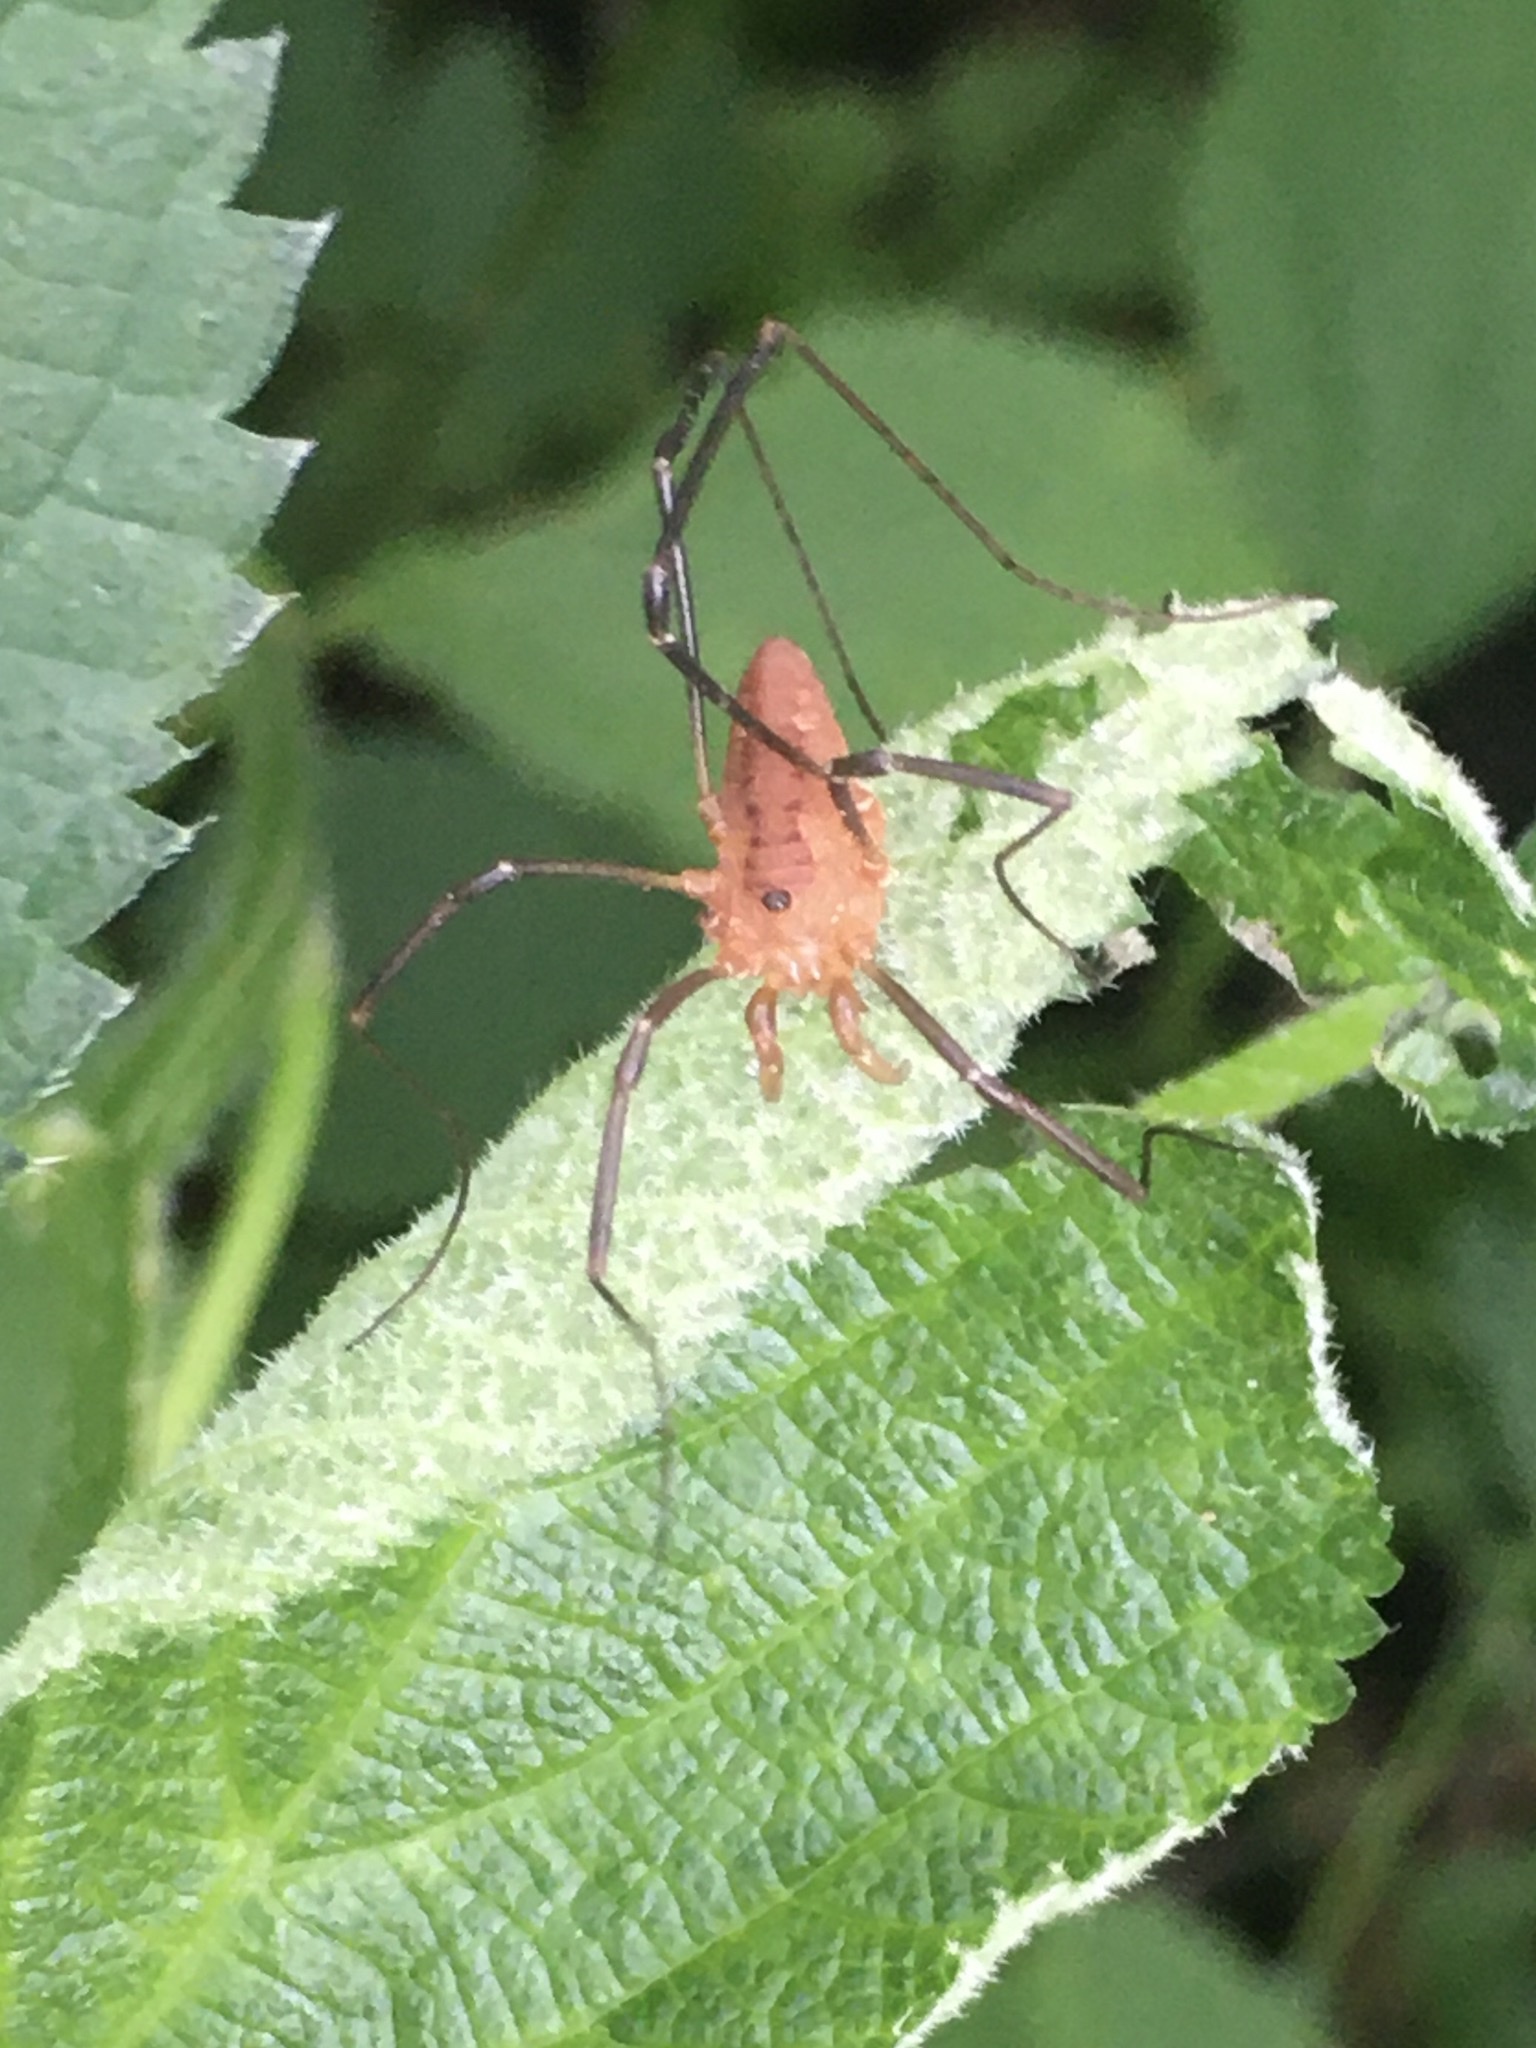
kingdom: Animalia
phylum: Arthropoda
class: Arachnida
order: Opiliones
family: Sclerosomatidae
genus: Leiobunum
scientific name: Leiobunum calcar
